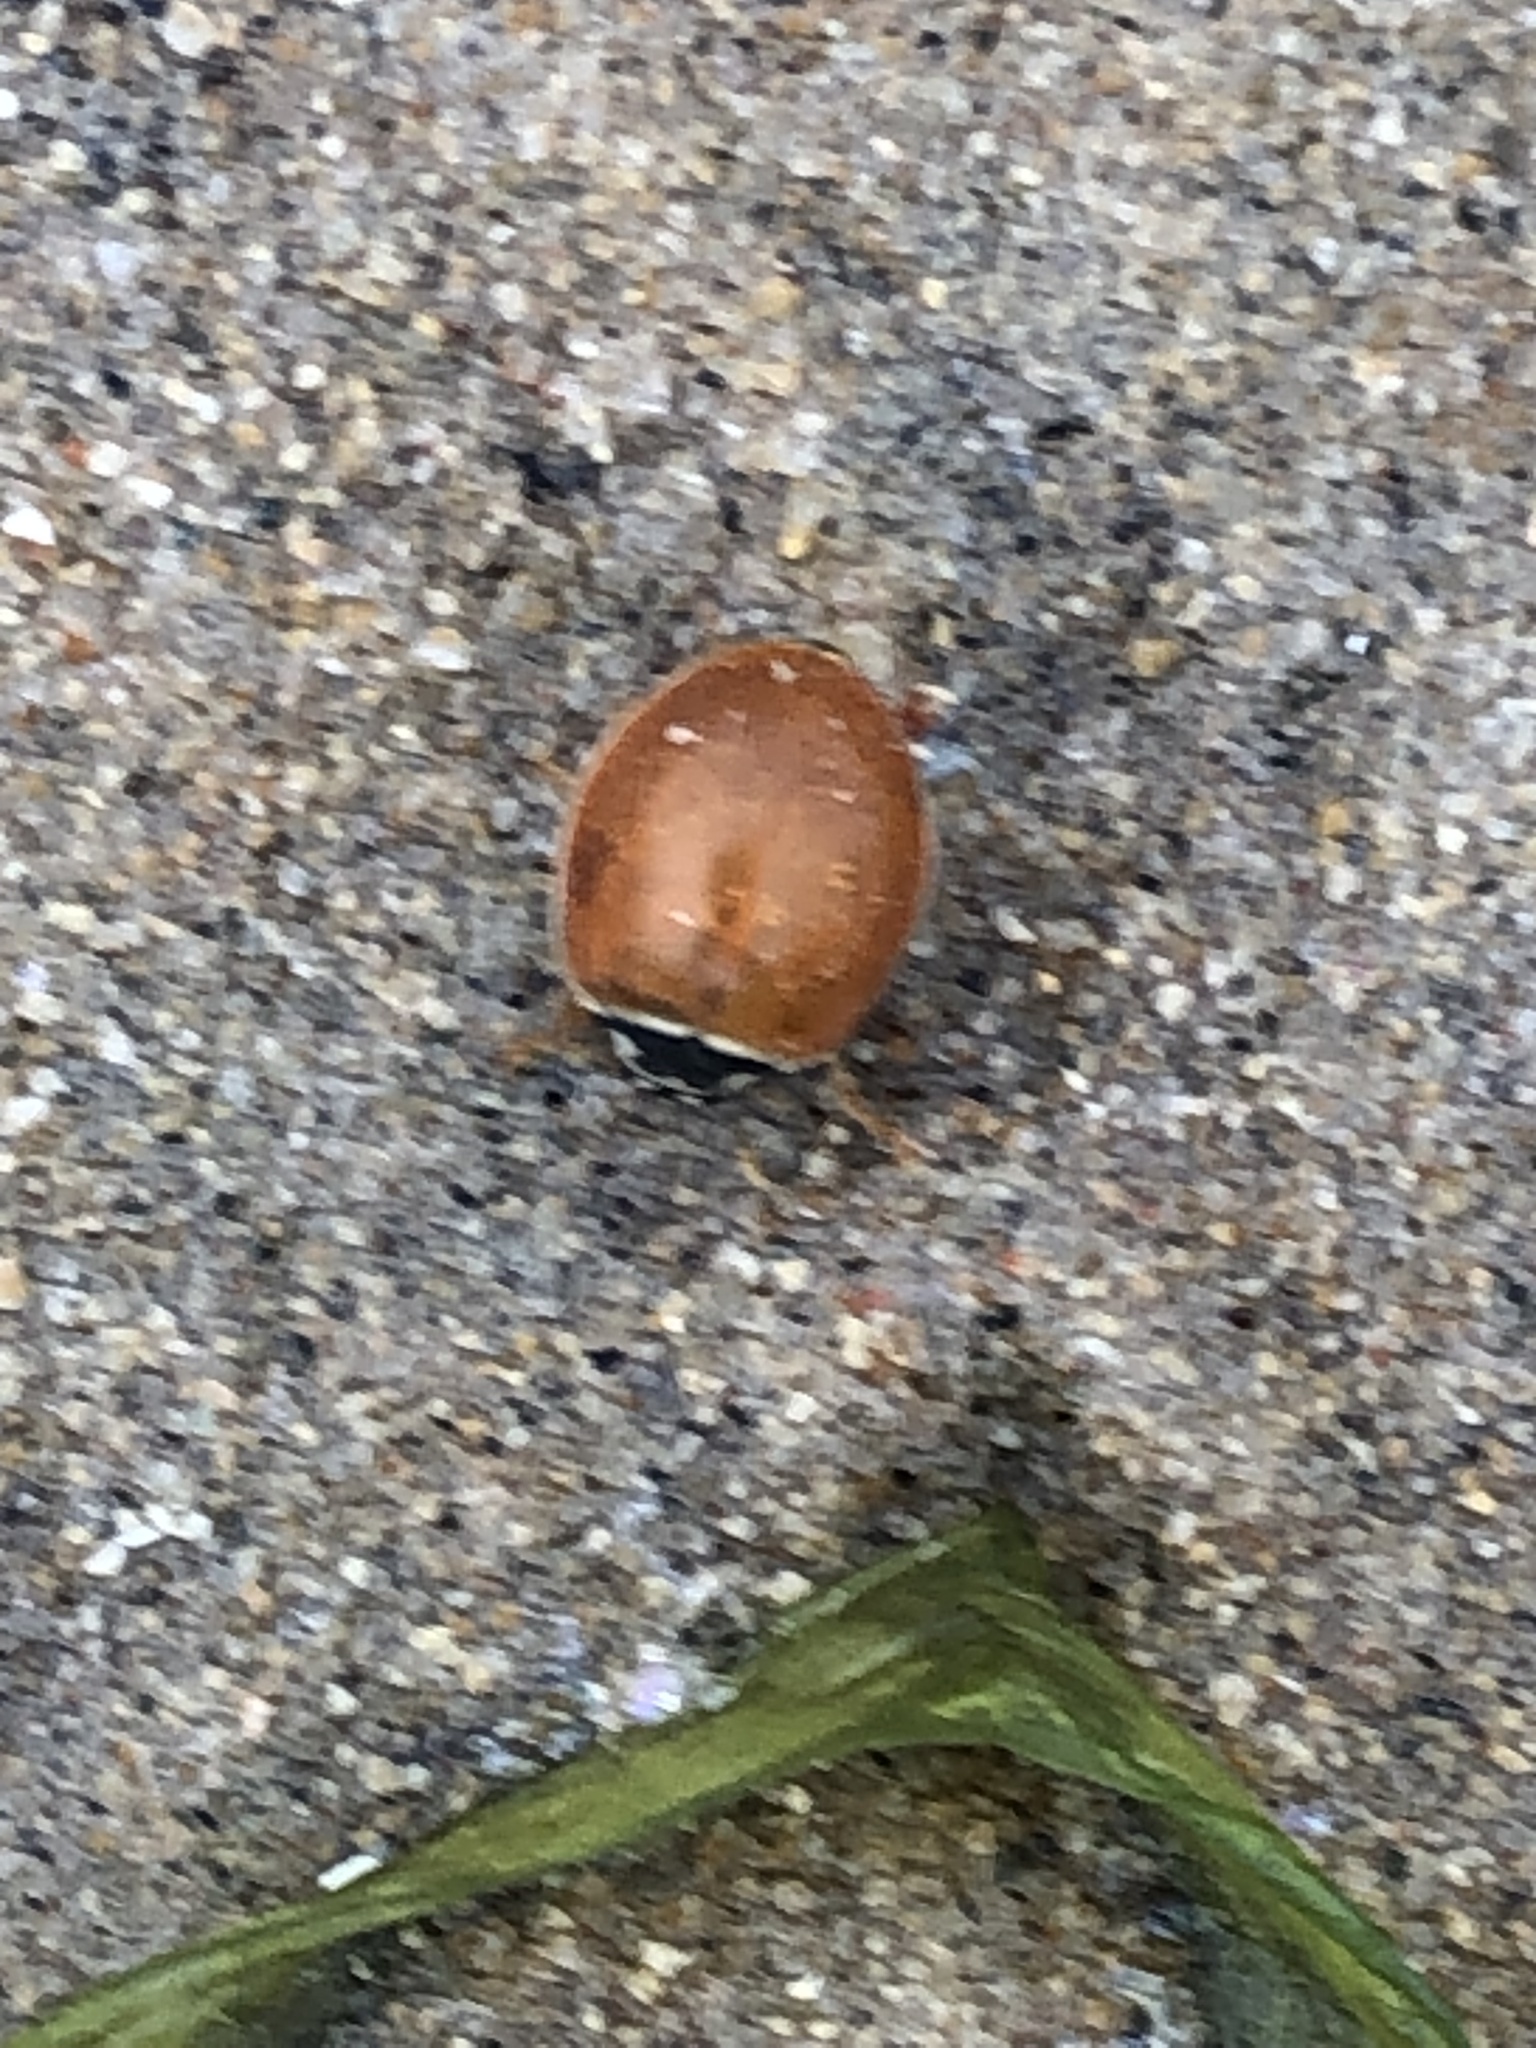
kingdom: Animalia
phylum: Arthropoda
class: Insecta
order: Coleoptera
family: Coccinellidae
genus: Cycloneda
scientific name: Cycloneda munda
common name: Polished lady beetle
